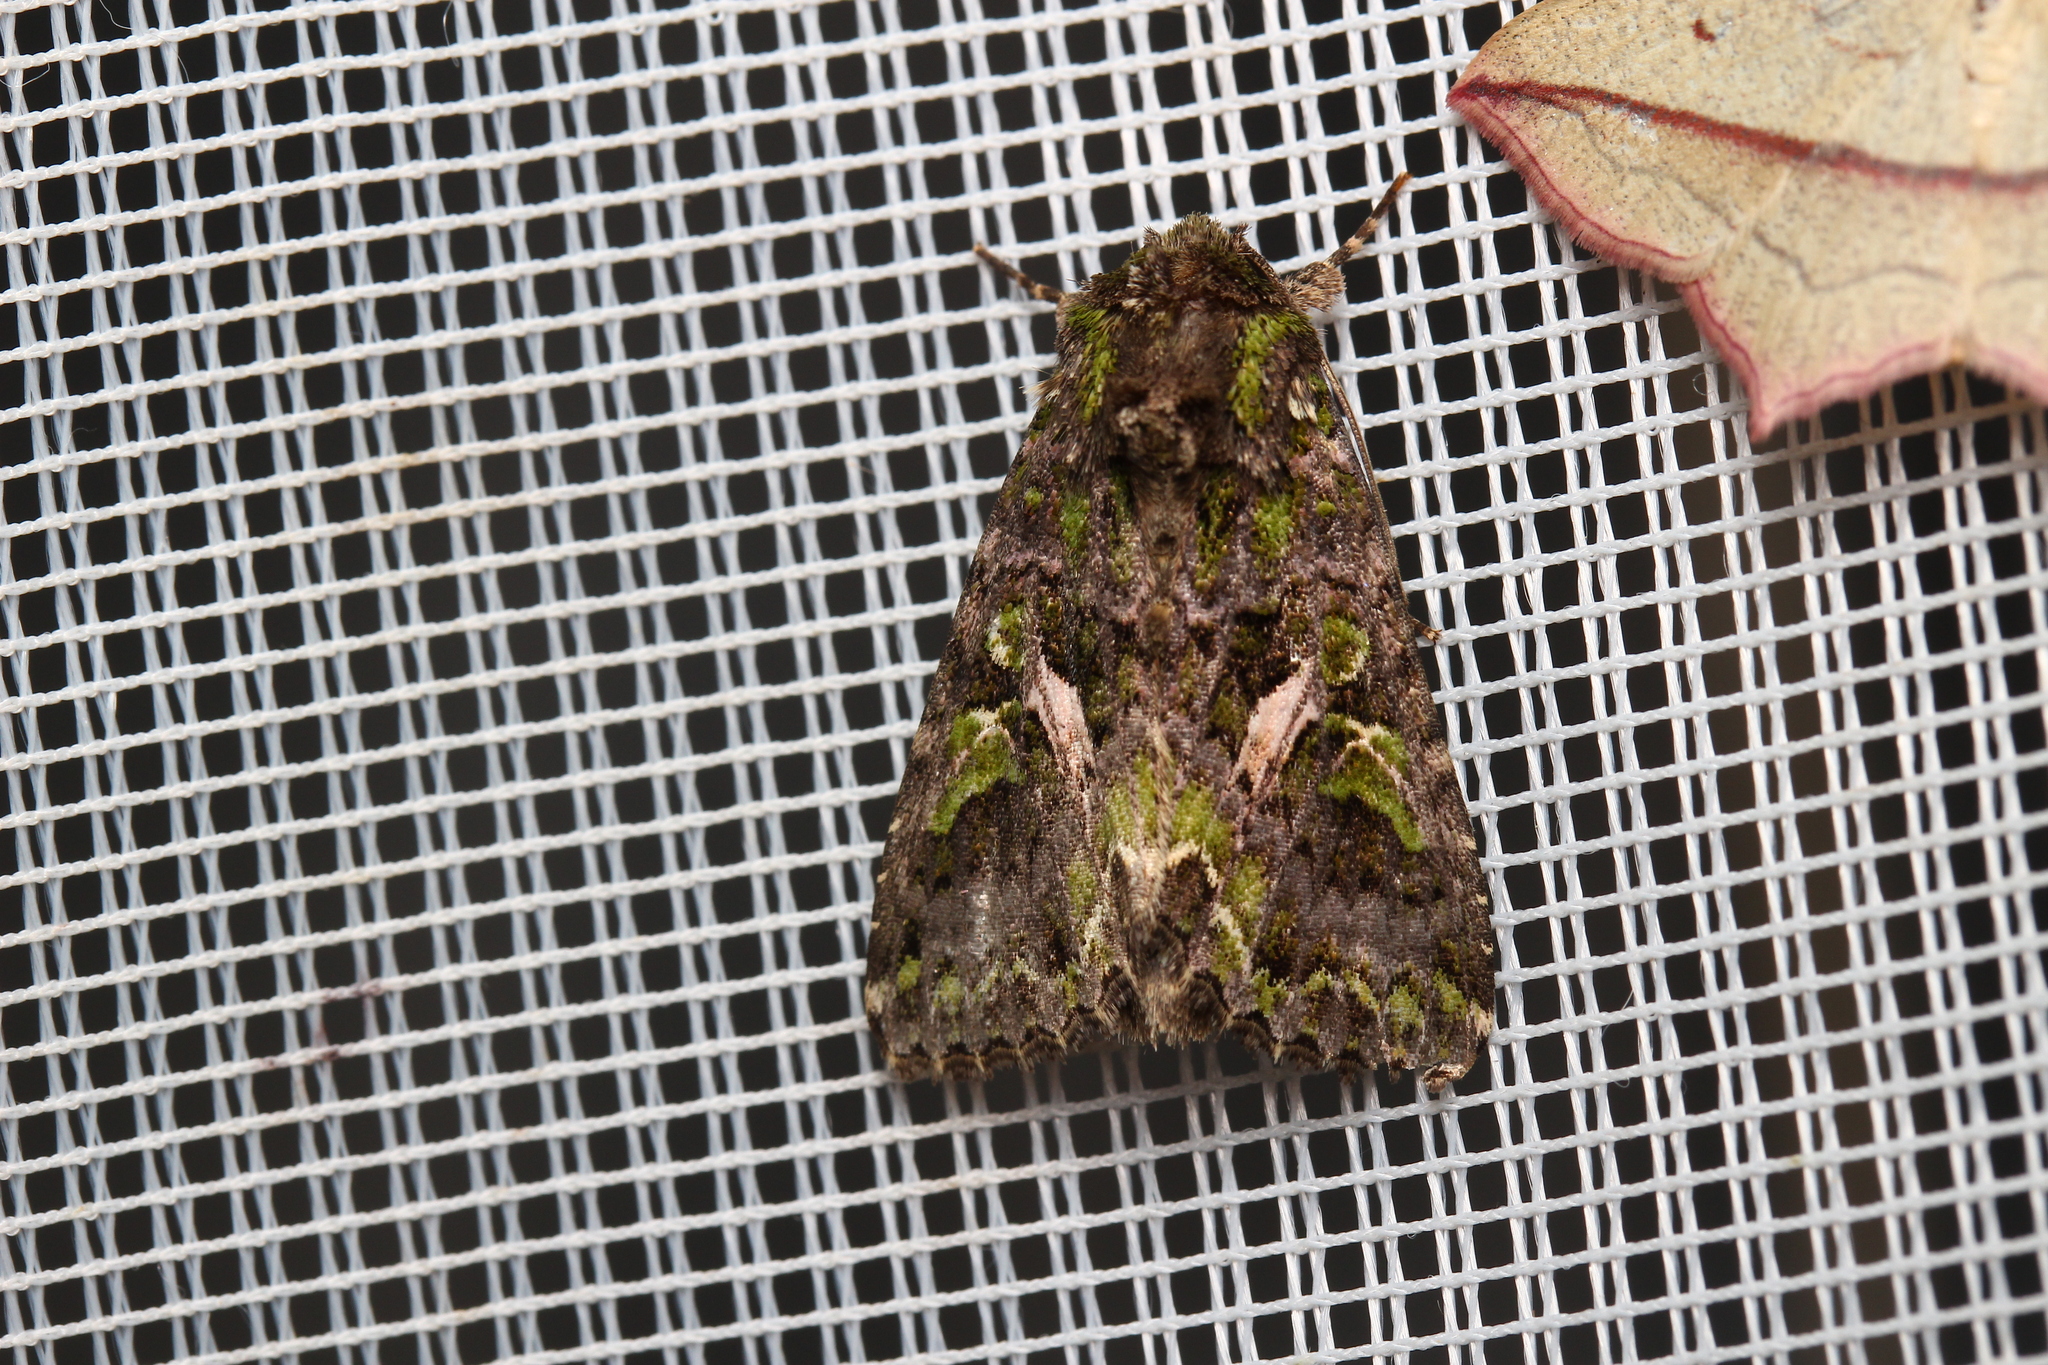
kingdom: Animalia
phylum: Arthropoda
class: Insecta
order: Lepidoptera
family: Noctuidae
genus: Trachea
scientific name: Trachea atriplicis
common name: Orache moth
